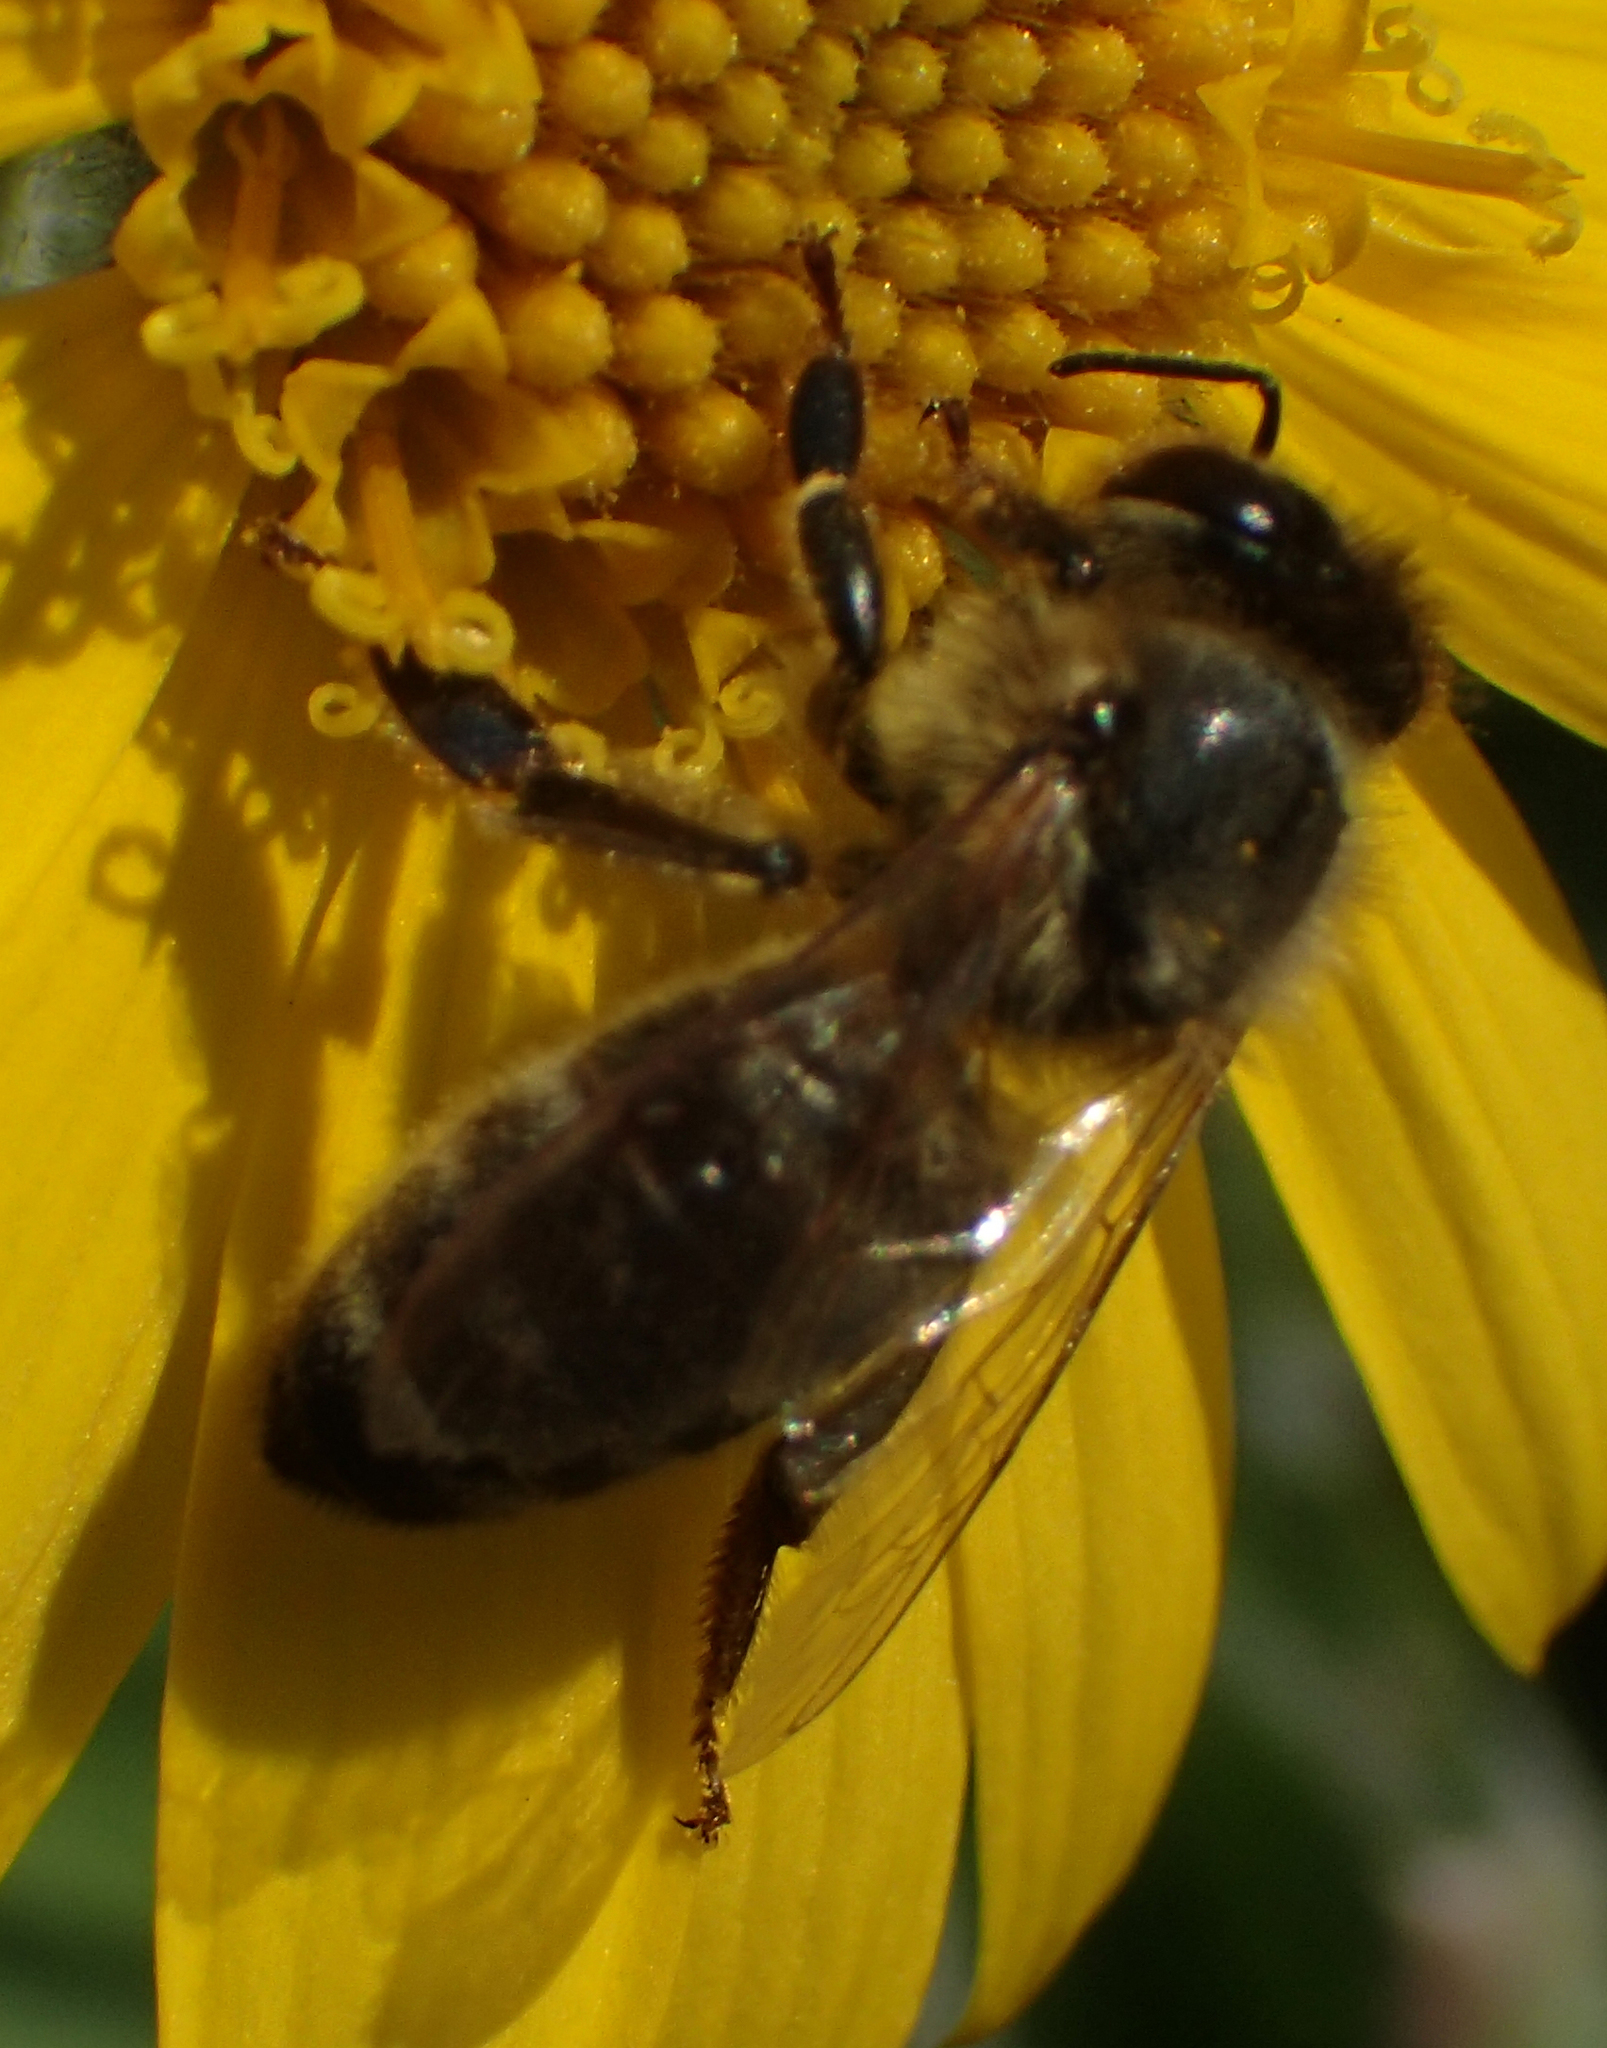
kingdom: Animalia
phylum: Arthropoda
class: Insecta
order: Hymenoptera
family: Apidae
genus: Apis
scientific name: Apis mellifera
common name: Honey bee
